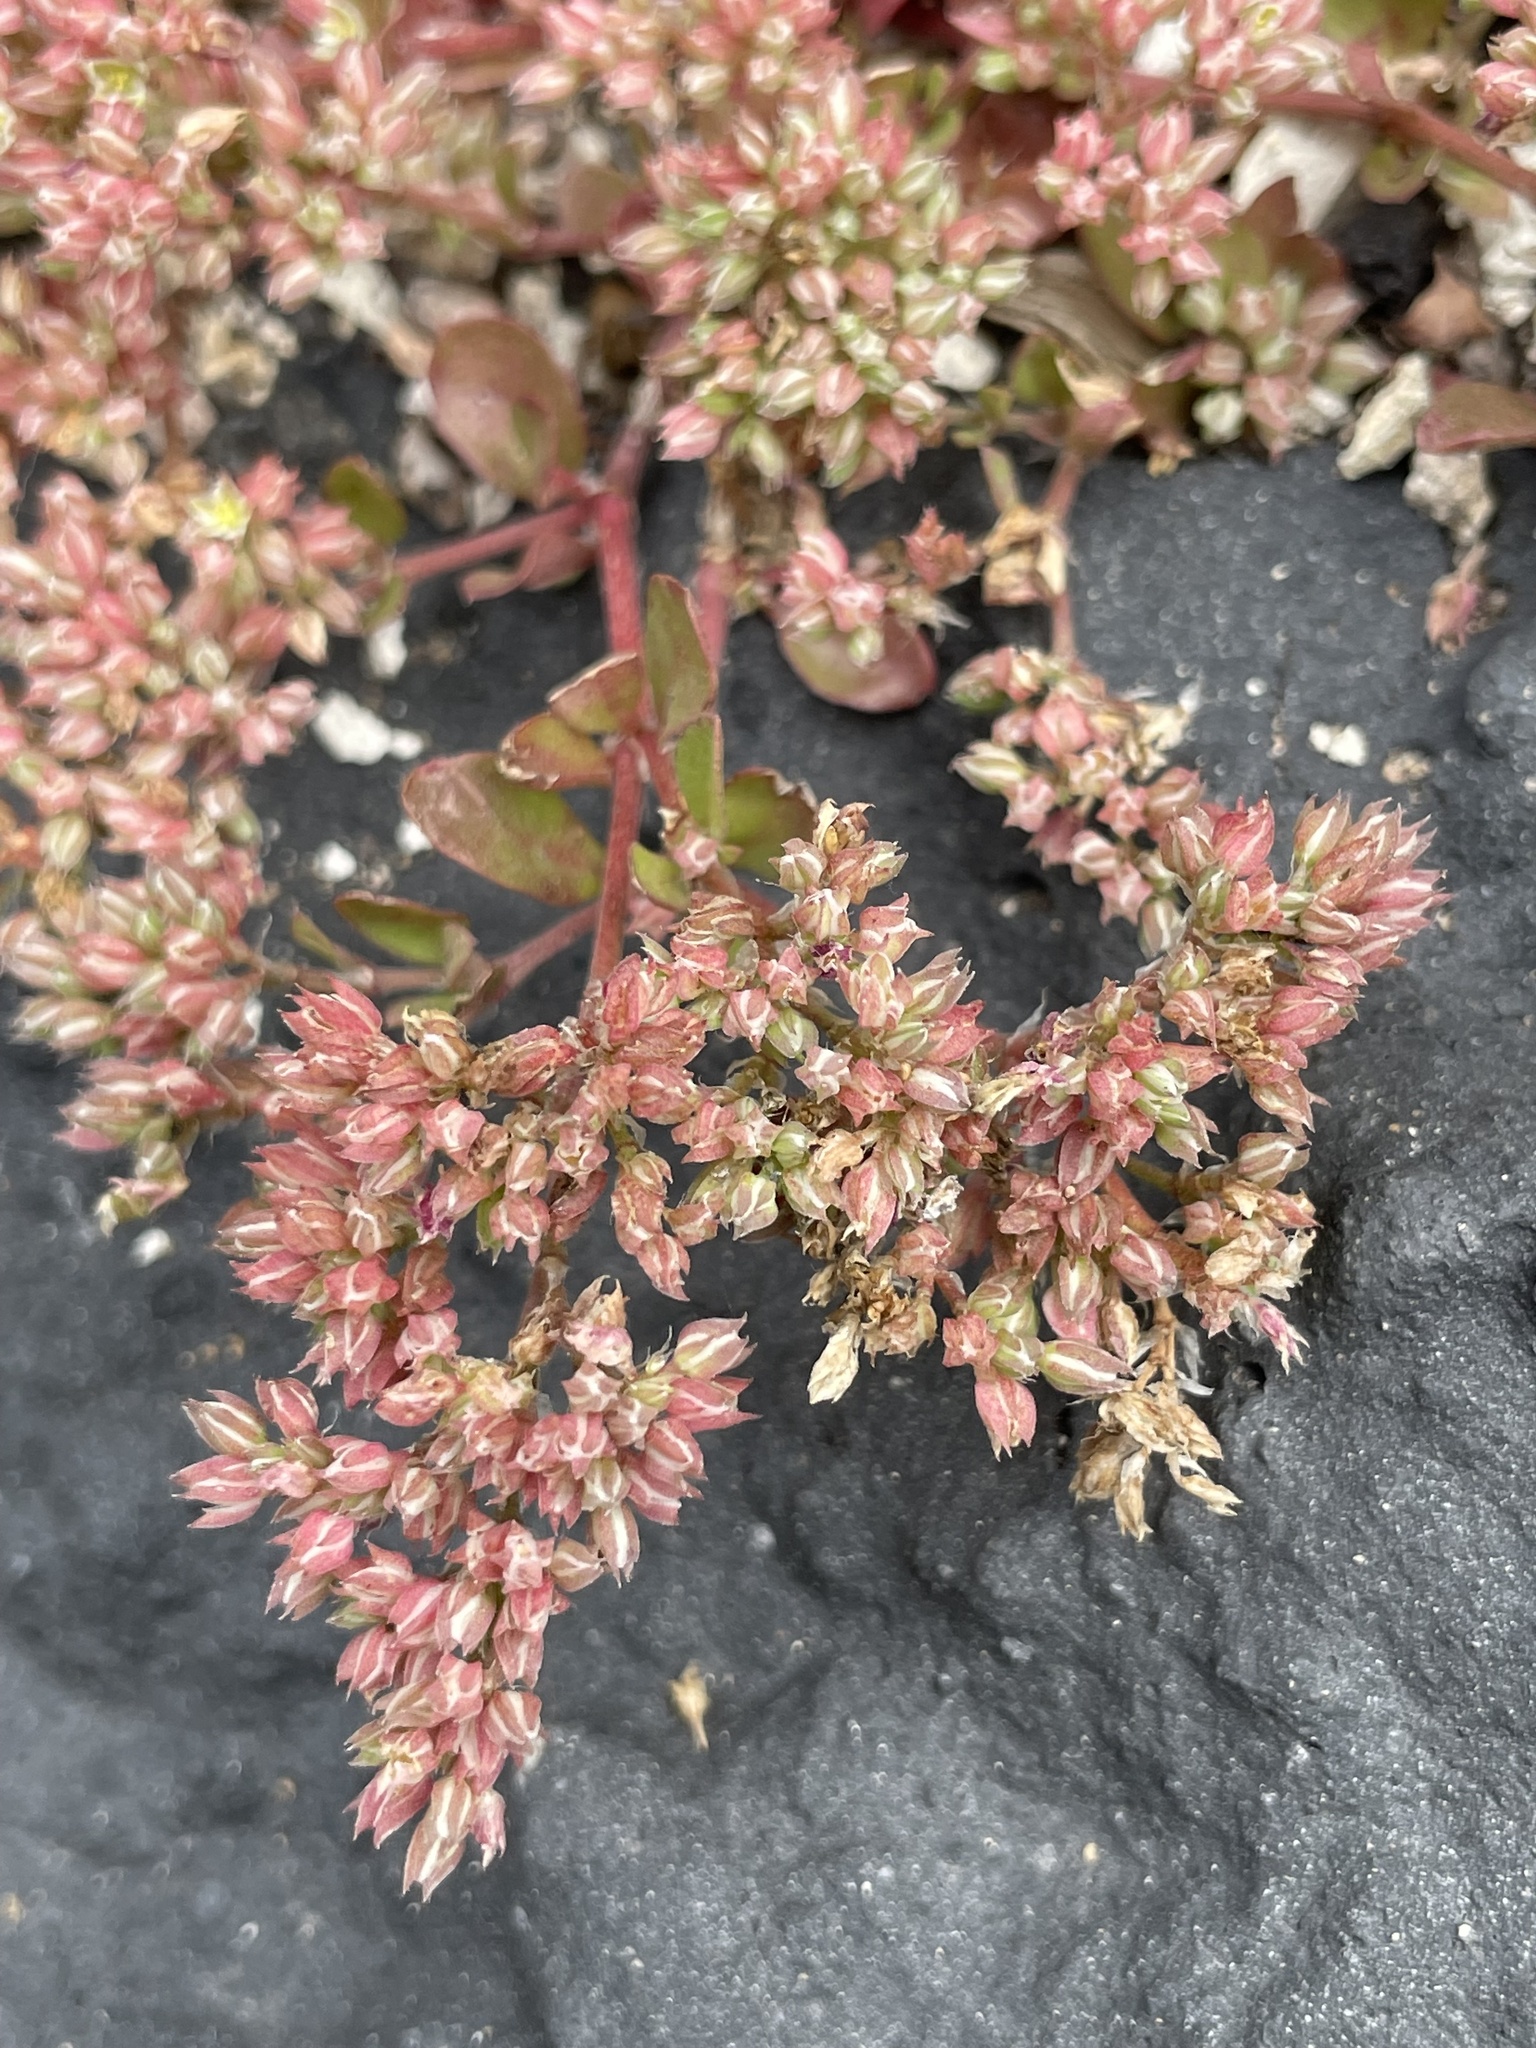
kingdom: Plantae
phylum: Tracheophyta
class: Magnoliopsida
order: Caryophyllales
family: Caryophyllaceae
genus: Polycarpon
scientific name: Polycarpon tetraphyllum
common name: Four-leaved all-seed
